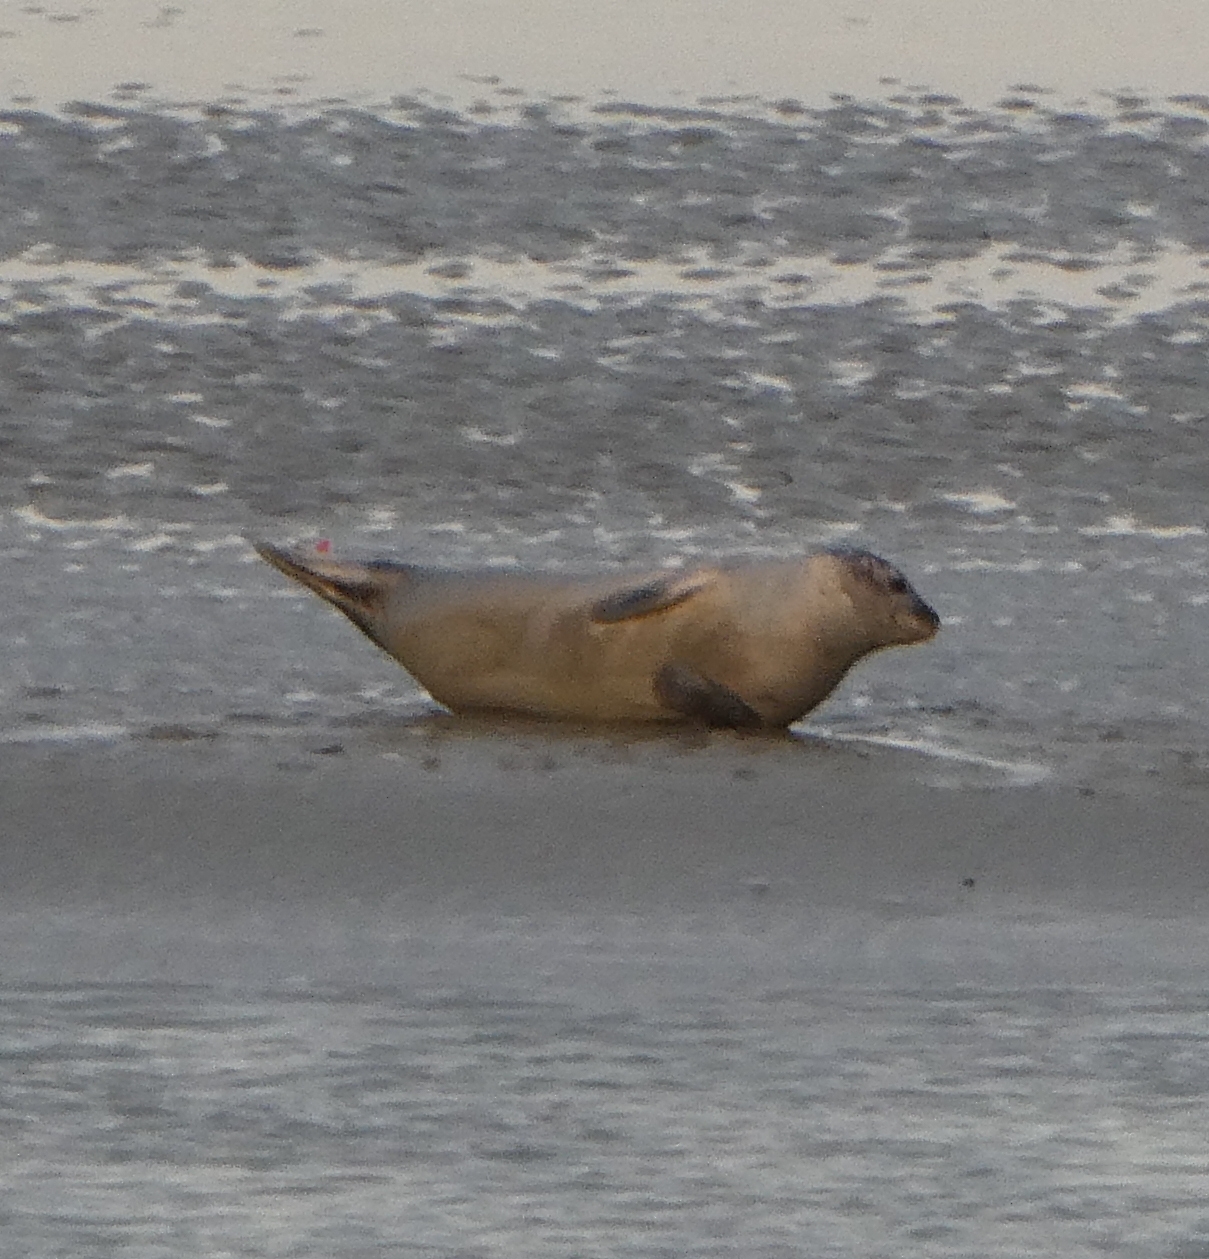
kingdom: Animalia
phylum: Chordata
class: Mammalia
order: Carnivora
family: Phocidae
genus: Phoca
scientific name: Phoca vitulina
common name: Harbor seal
